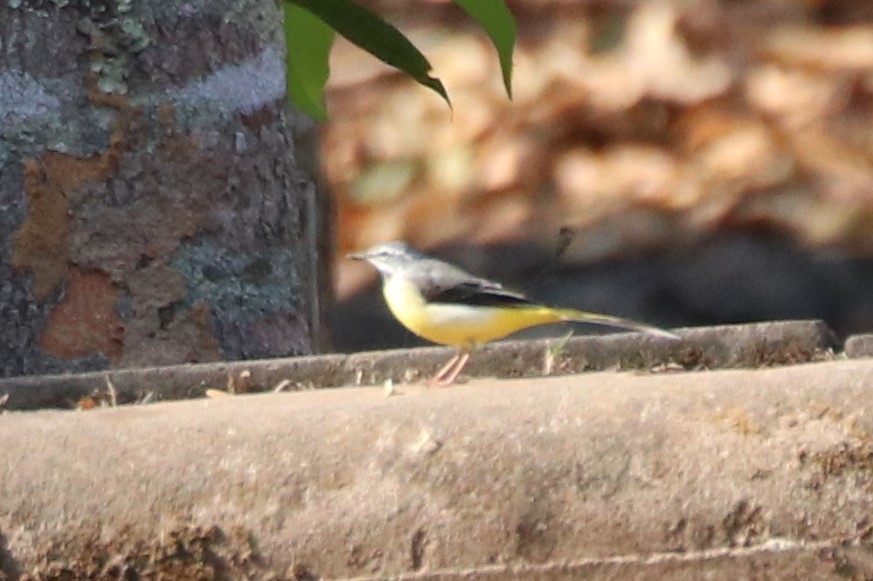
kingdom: Animalia
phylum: Chordata
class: Aves
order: Passeriformes
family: Motacillidae
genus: Motacilla
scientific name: Motacilla cinerea
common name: Grey wagtail
